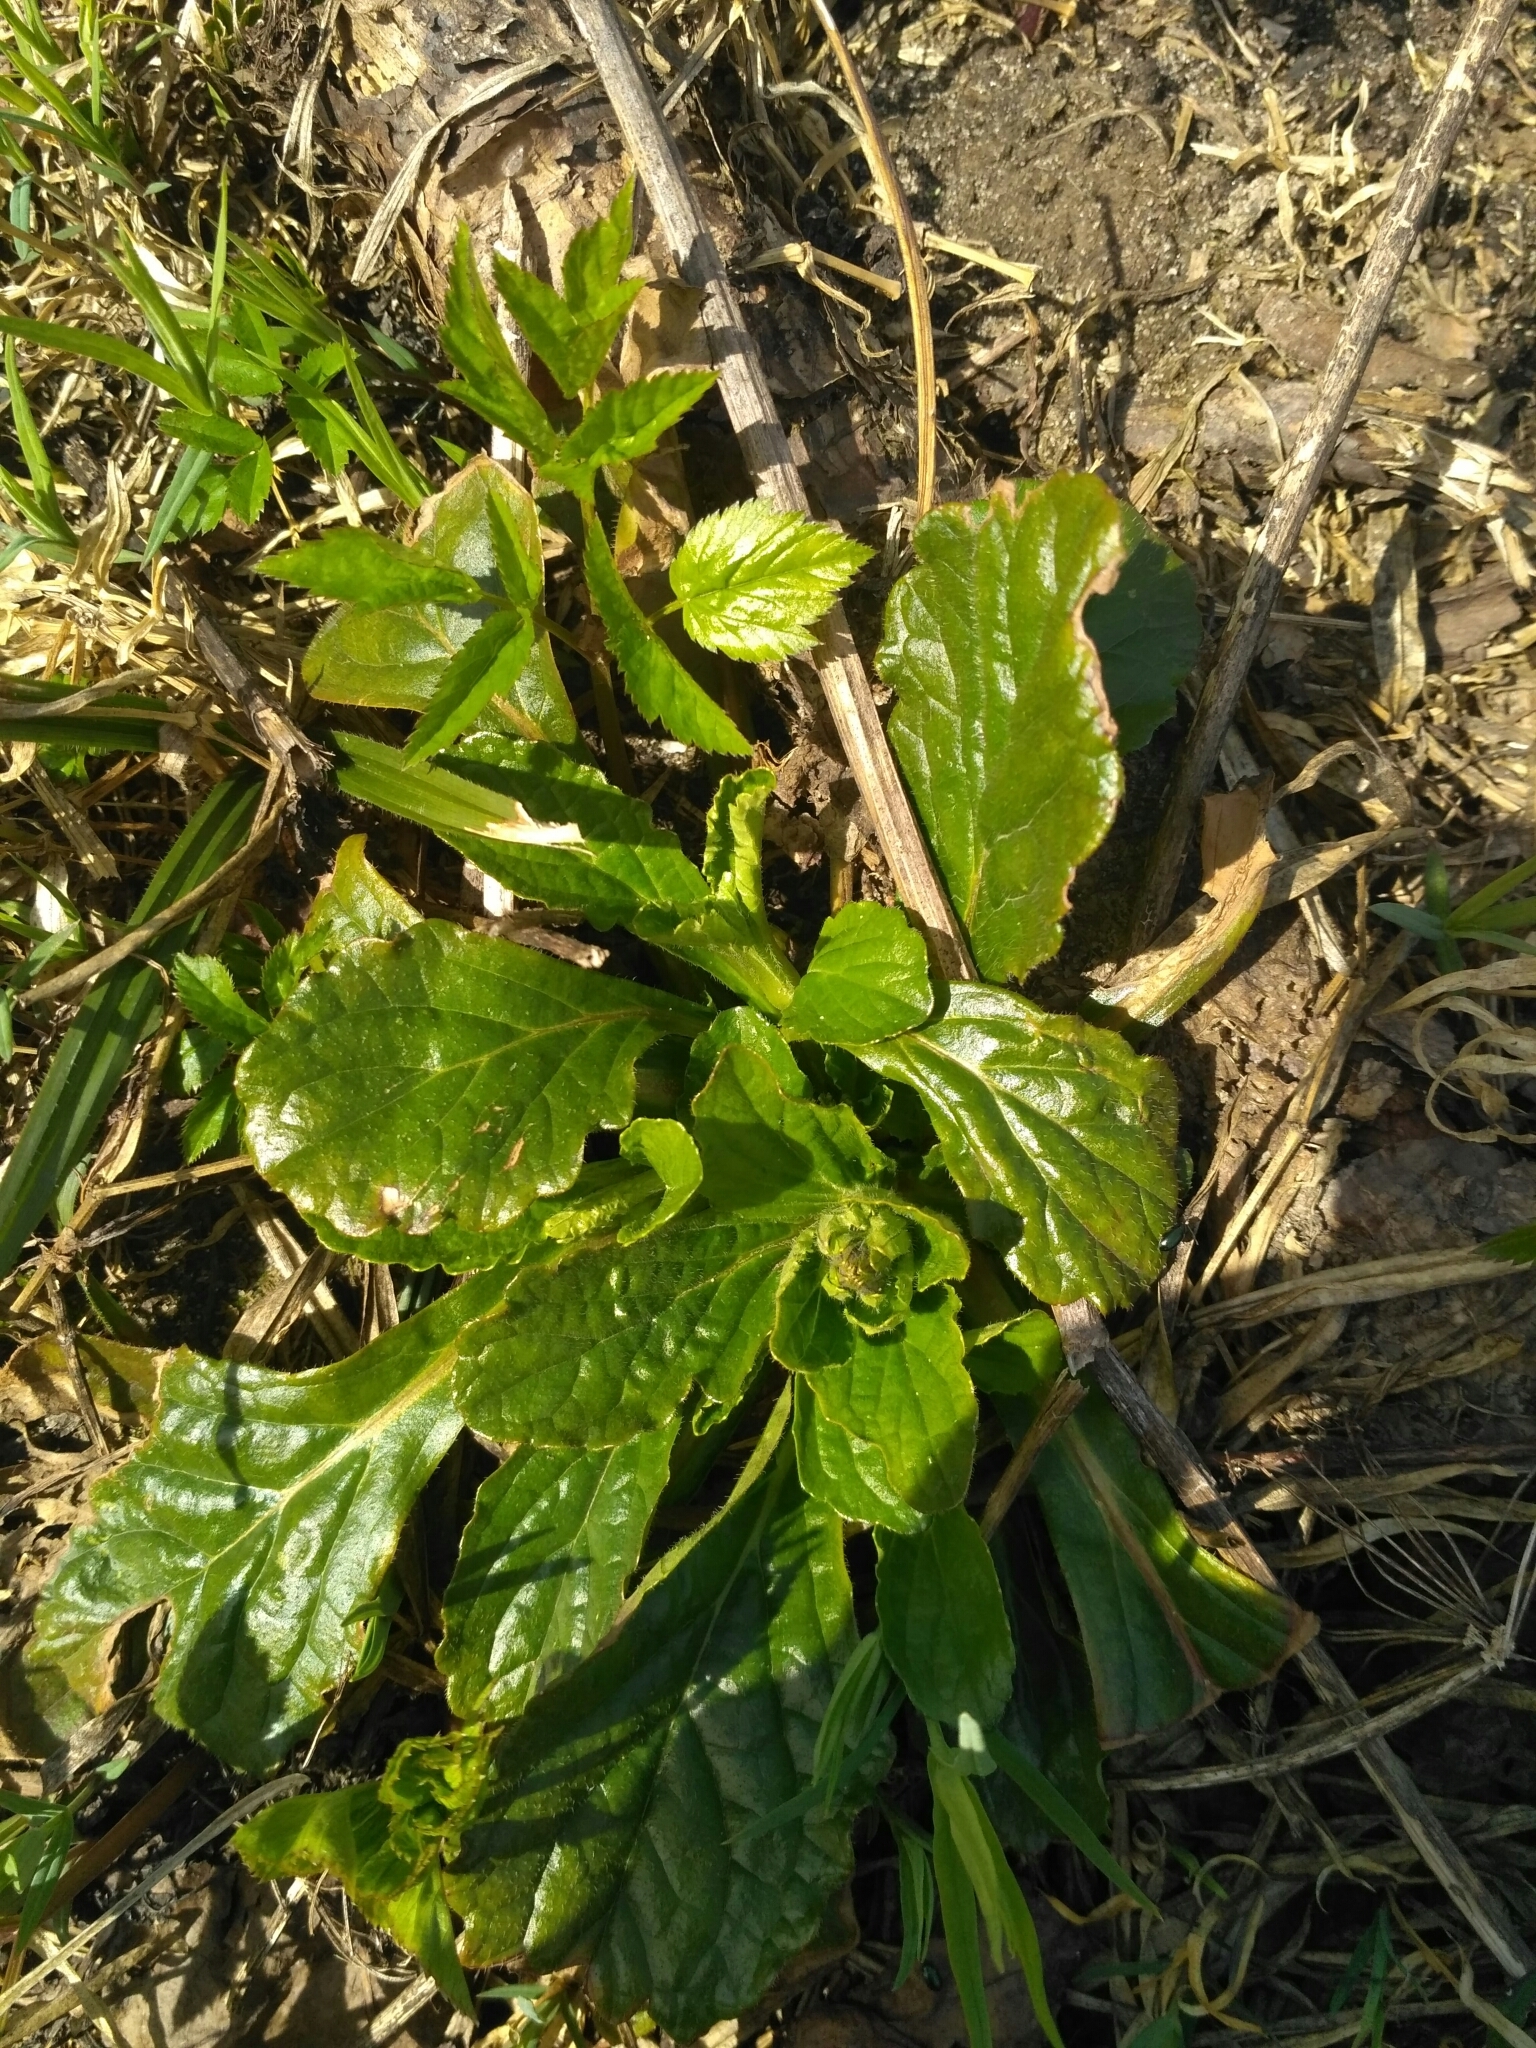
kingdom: Plantae
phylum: Tracheophyta
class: Magnoliopsida
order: Lamiales
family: Lamiaceae
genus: Ajuga
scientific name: Ajuga reptans
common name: Bugle
